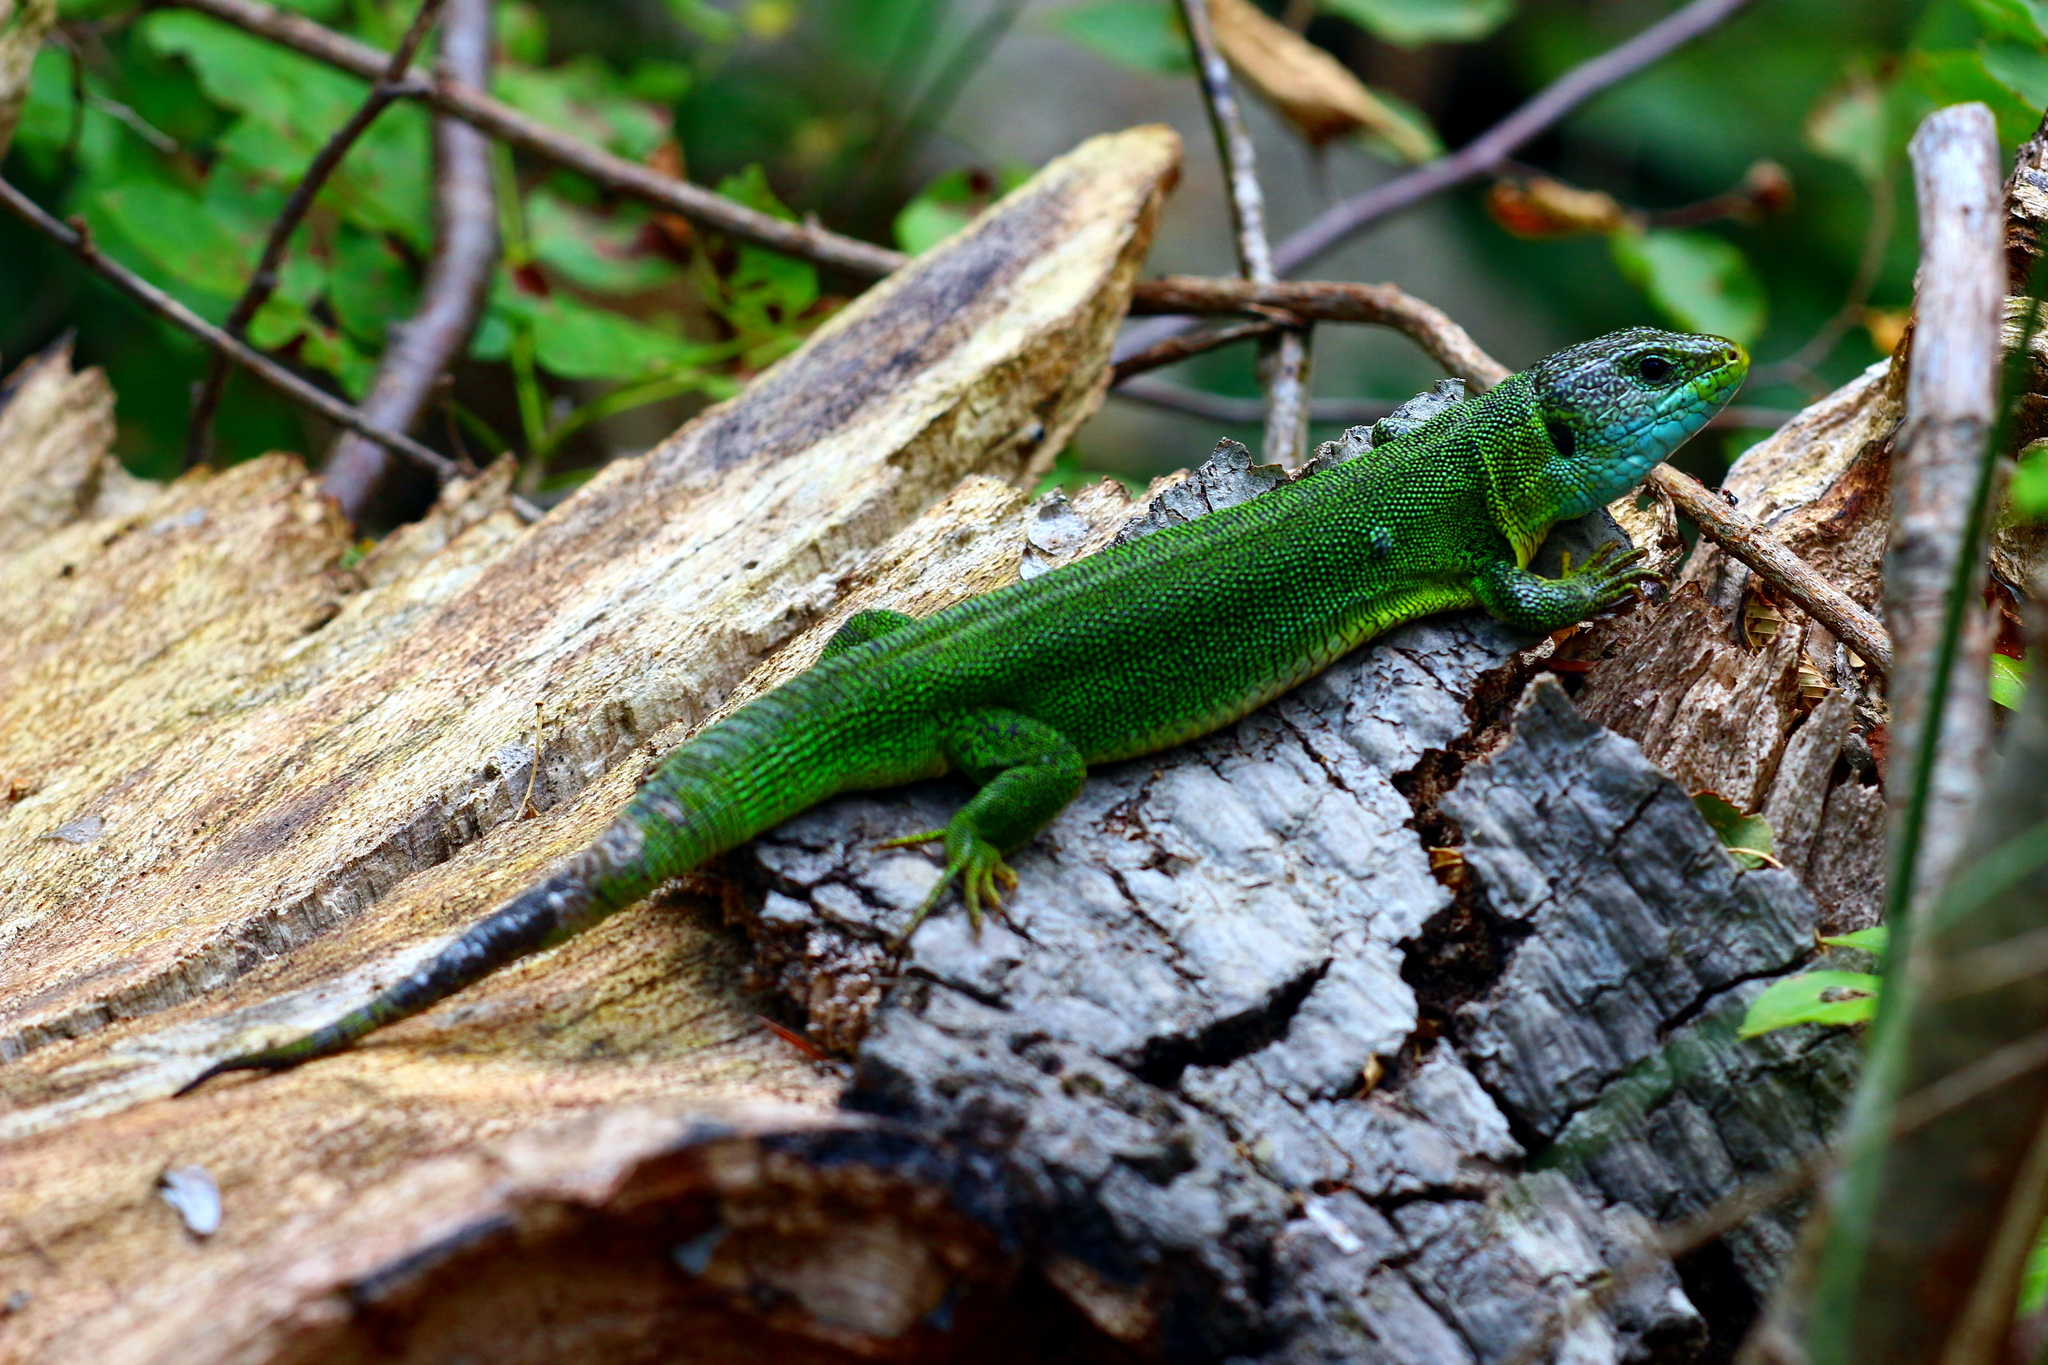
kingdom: Animalia
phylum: Chordata
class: Squamata
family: Lacertidae
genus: Lacerta
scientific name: Lacerta viridis
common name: European green lizard
